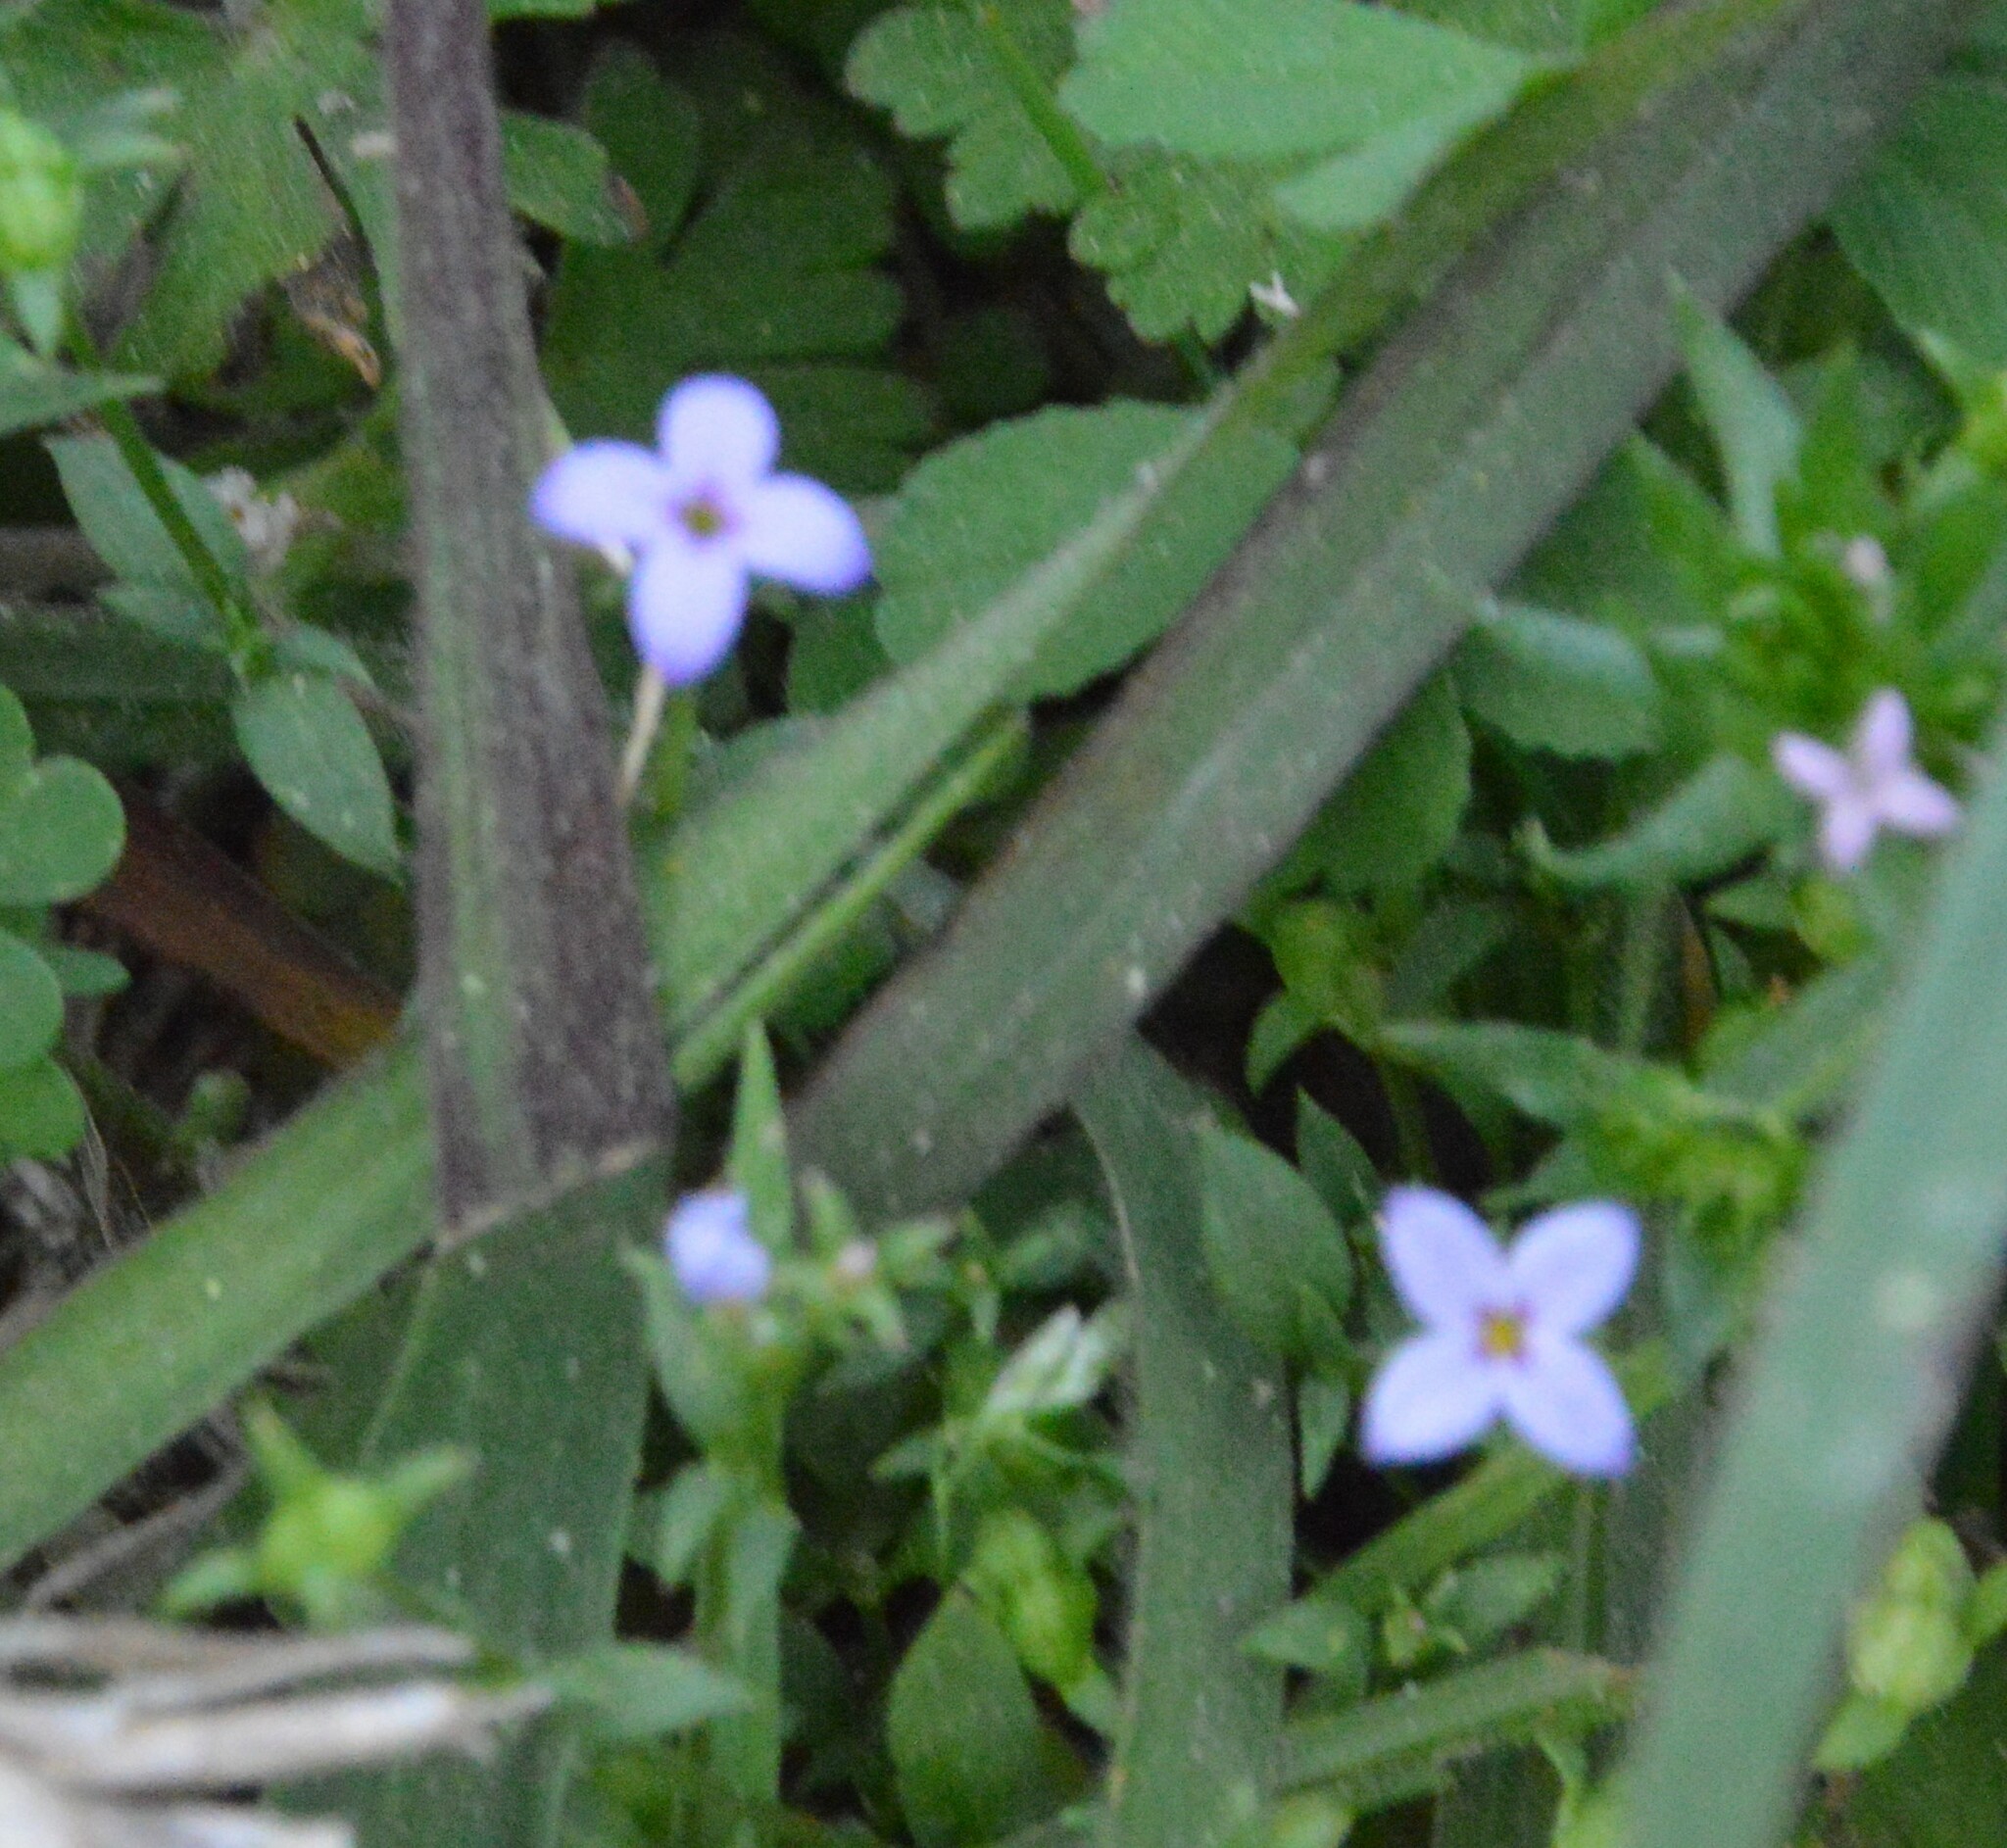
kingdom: Plantae
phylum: Tracheophyta
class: Magnoliopsida
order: Gentianales
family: Rubiaceae
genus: Houstonia
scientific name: Houstonia pusilla
